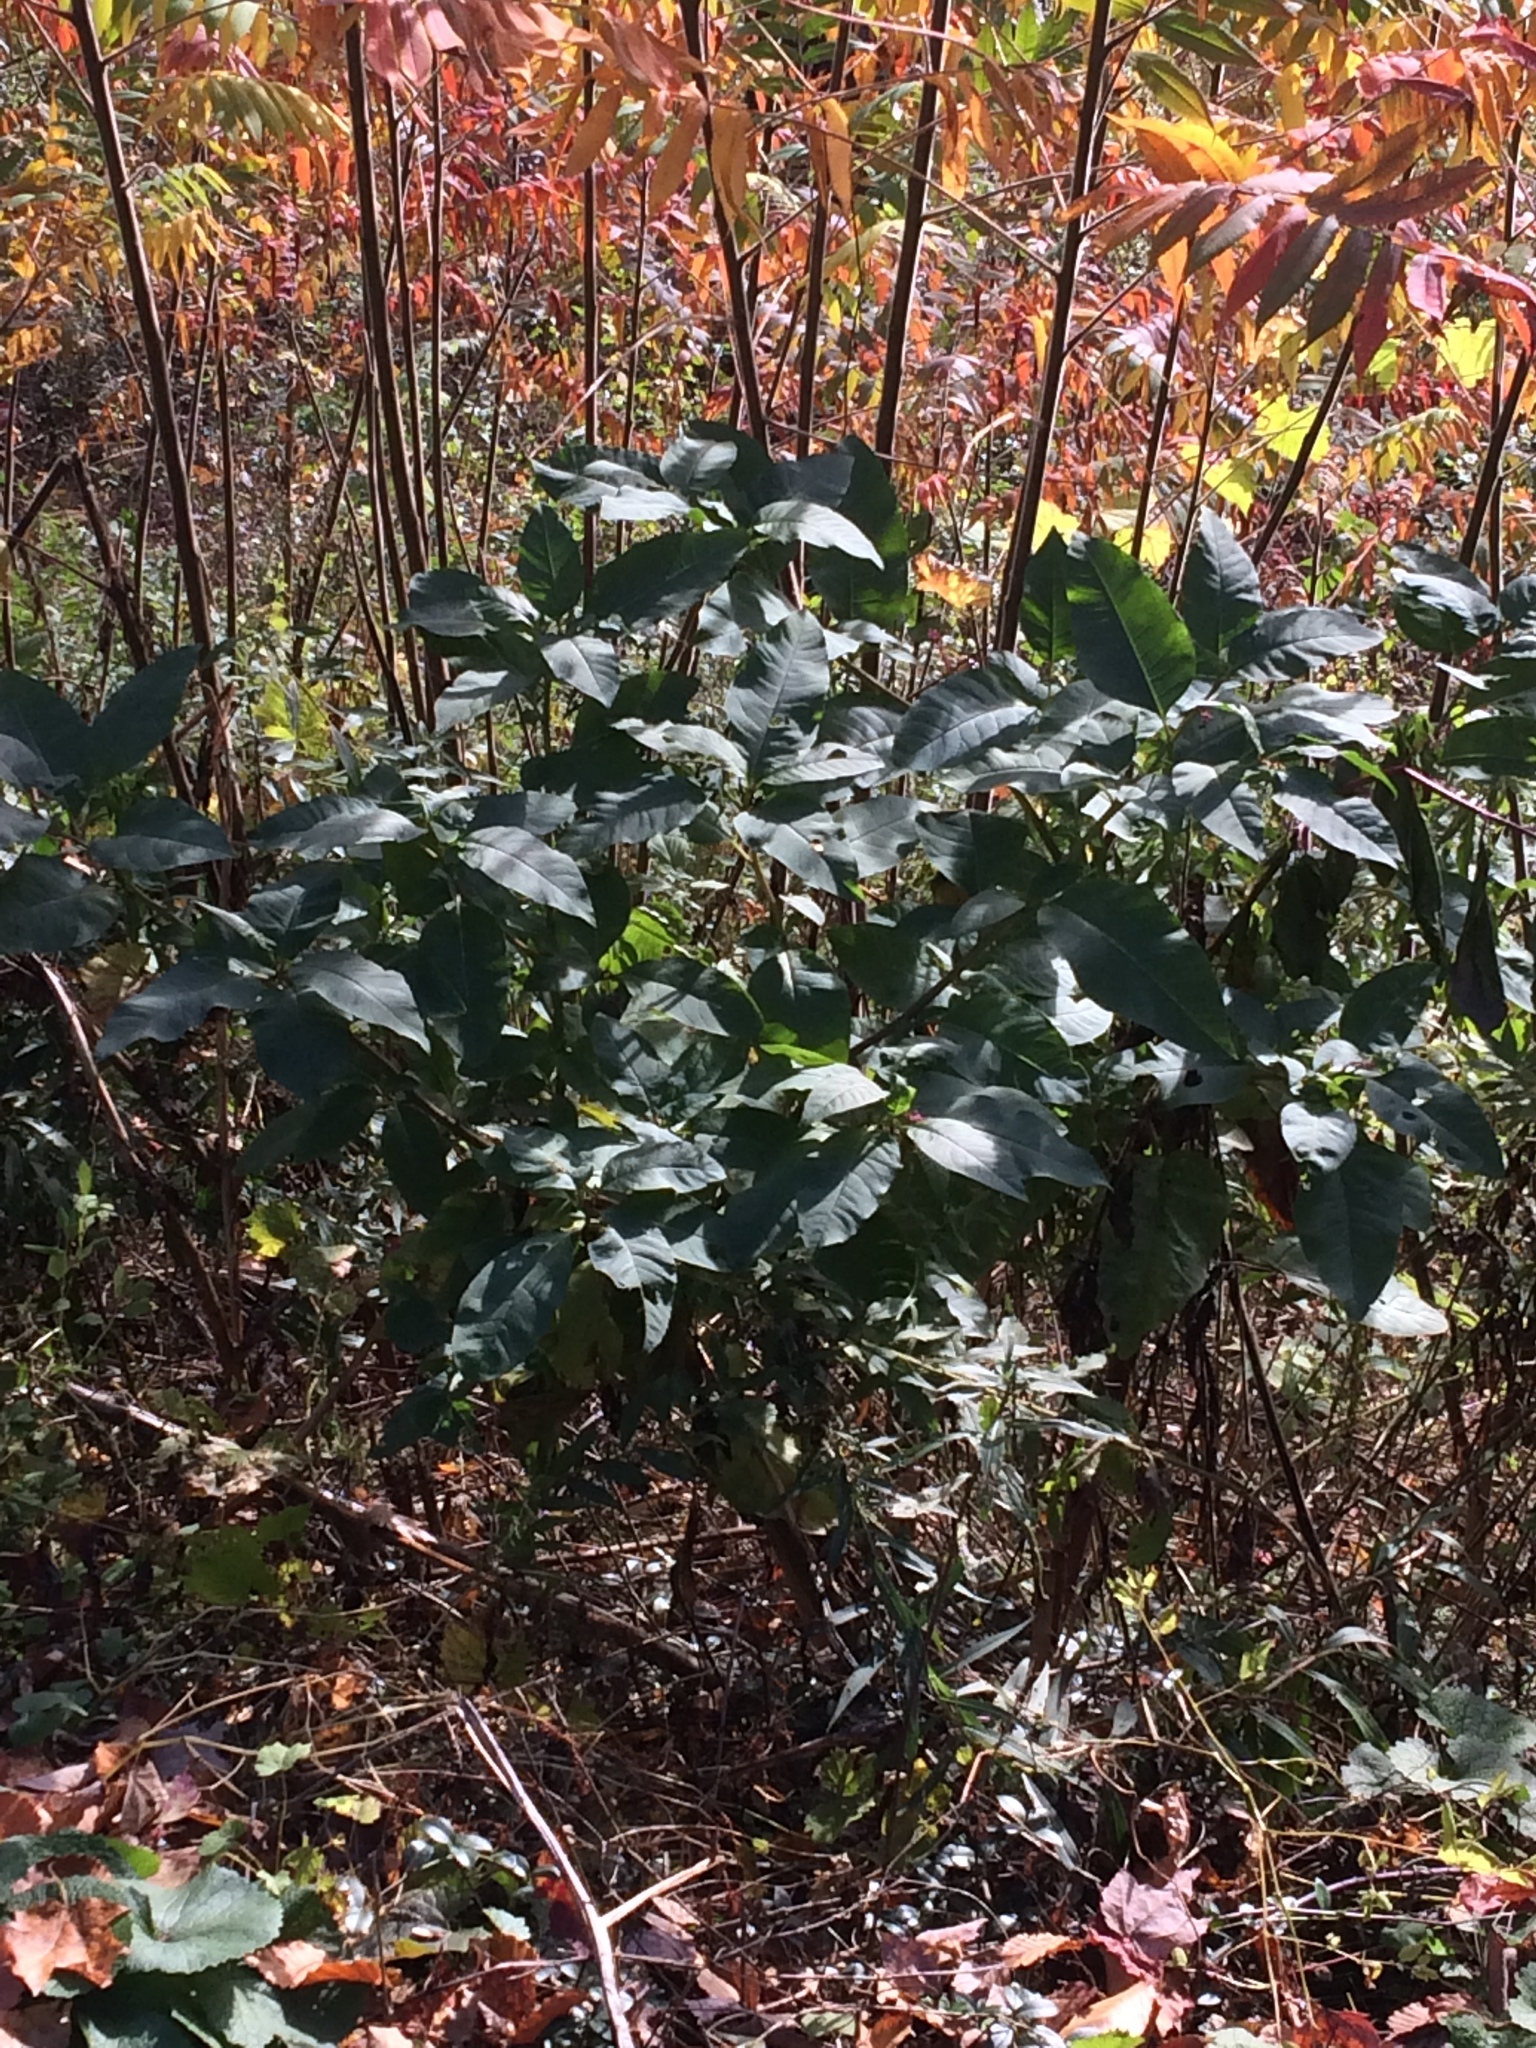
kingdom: Plantae
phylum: Tracheophyta
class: Magnoliopsida
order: Caryophyllales
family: Phytolaccaceae
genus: Phytolacca
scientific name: Phytolacca americana
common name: American pokeweed
